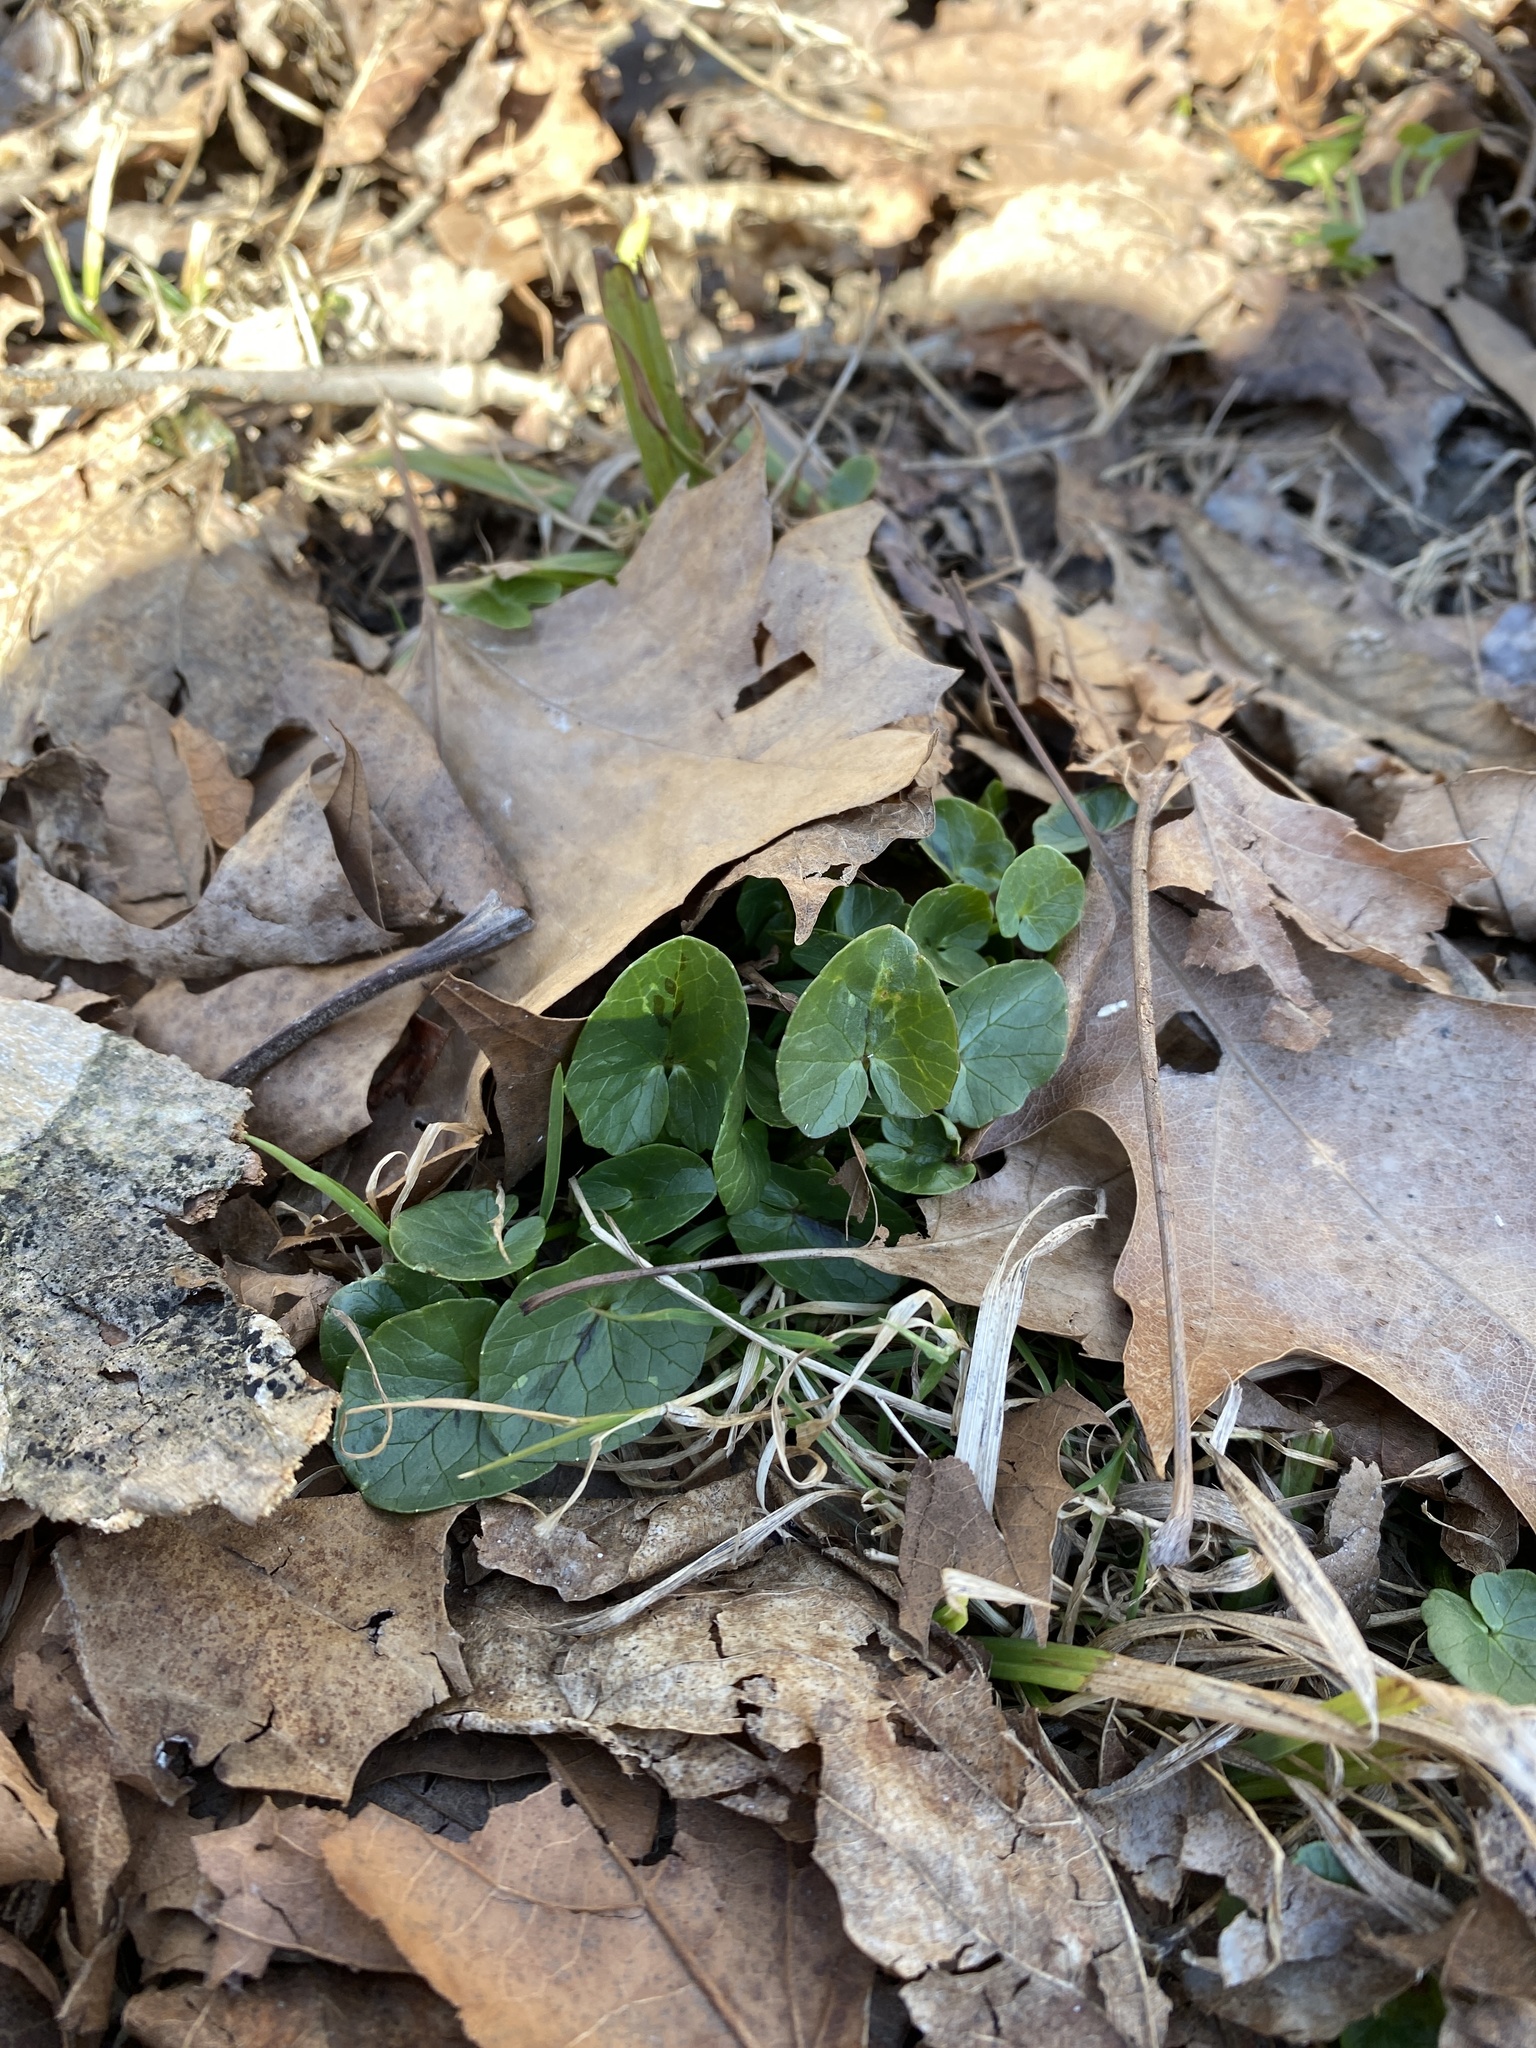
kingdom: Plantae
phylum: Tracheophyta
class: Magnoliopsida
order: Ranunculales
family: Ranunculaceae
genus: Ficaria
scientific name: Ficaria verna
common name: Lesser celandine
